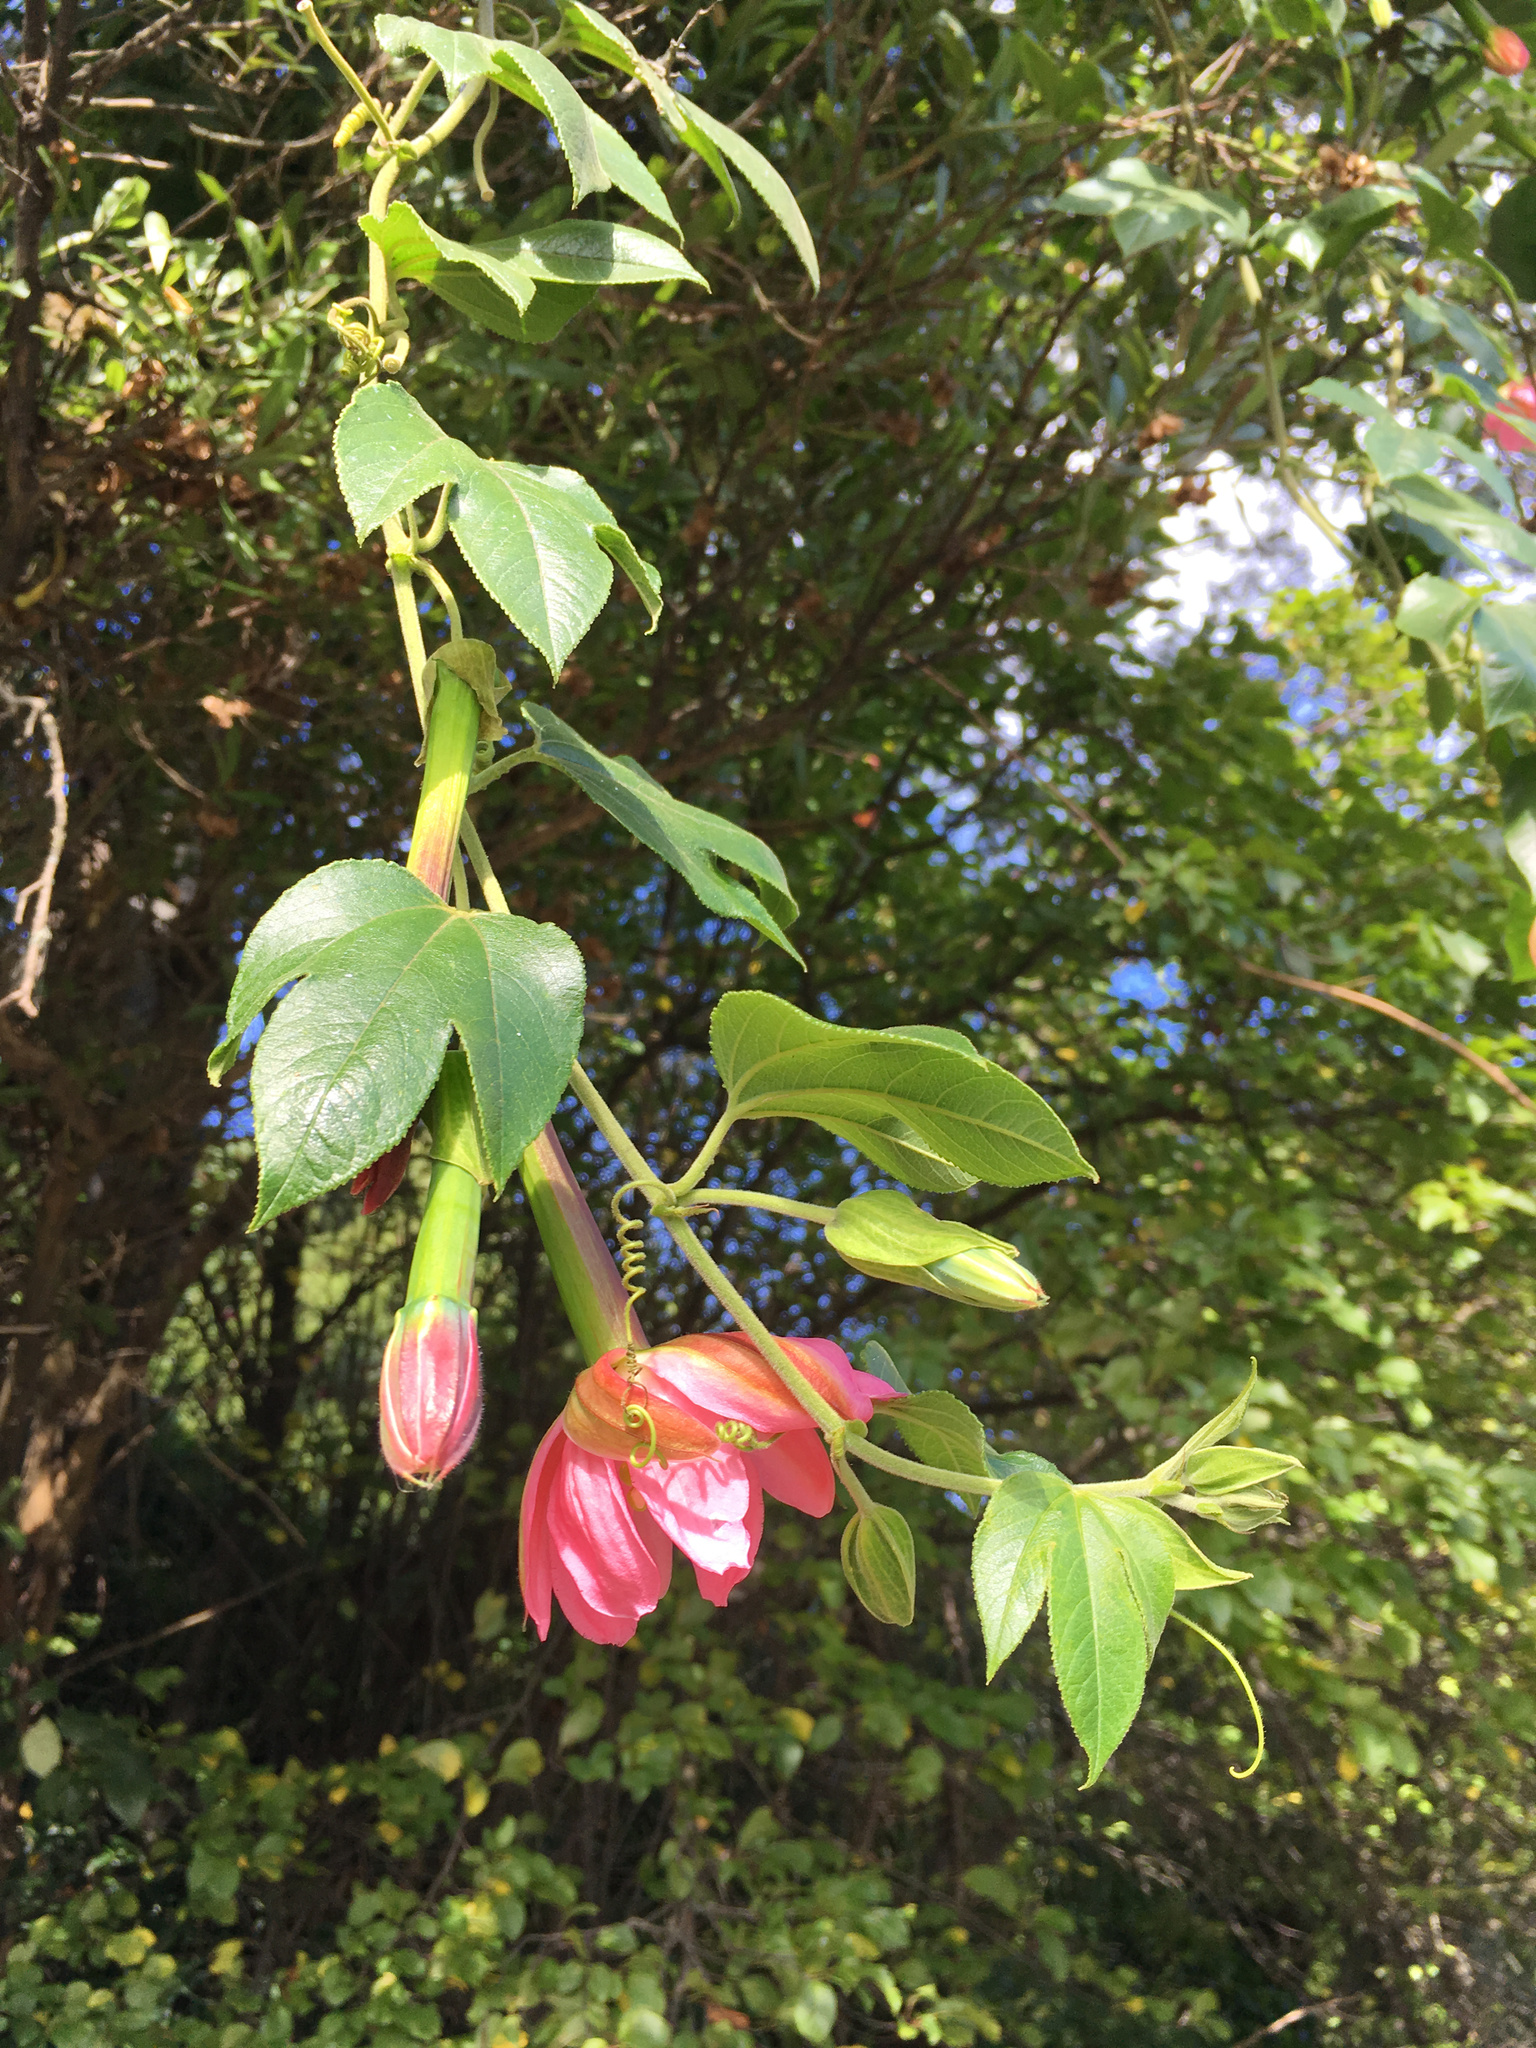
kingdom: Plantae
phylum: Tracheophyta
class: Magnoliopsida
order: Malpighiales
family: Passifloraceae
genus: Passiflora
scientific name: Passiflora tripartita
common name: Banana poka
